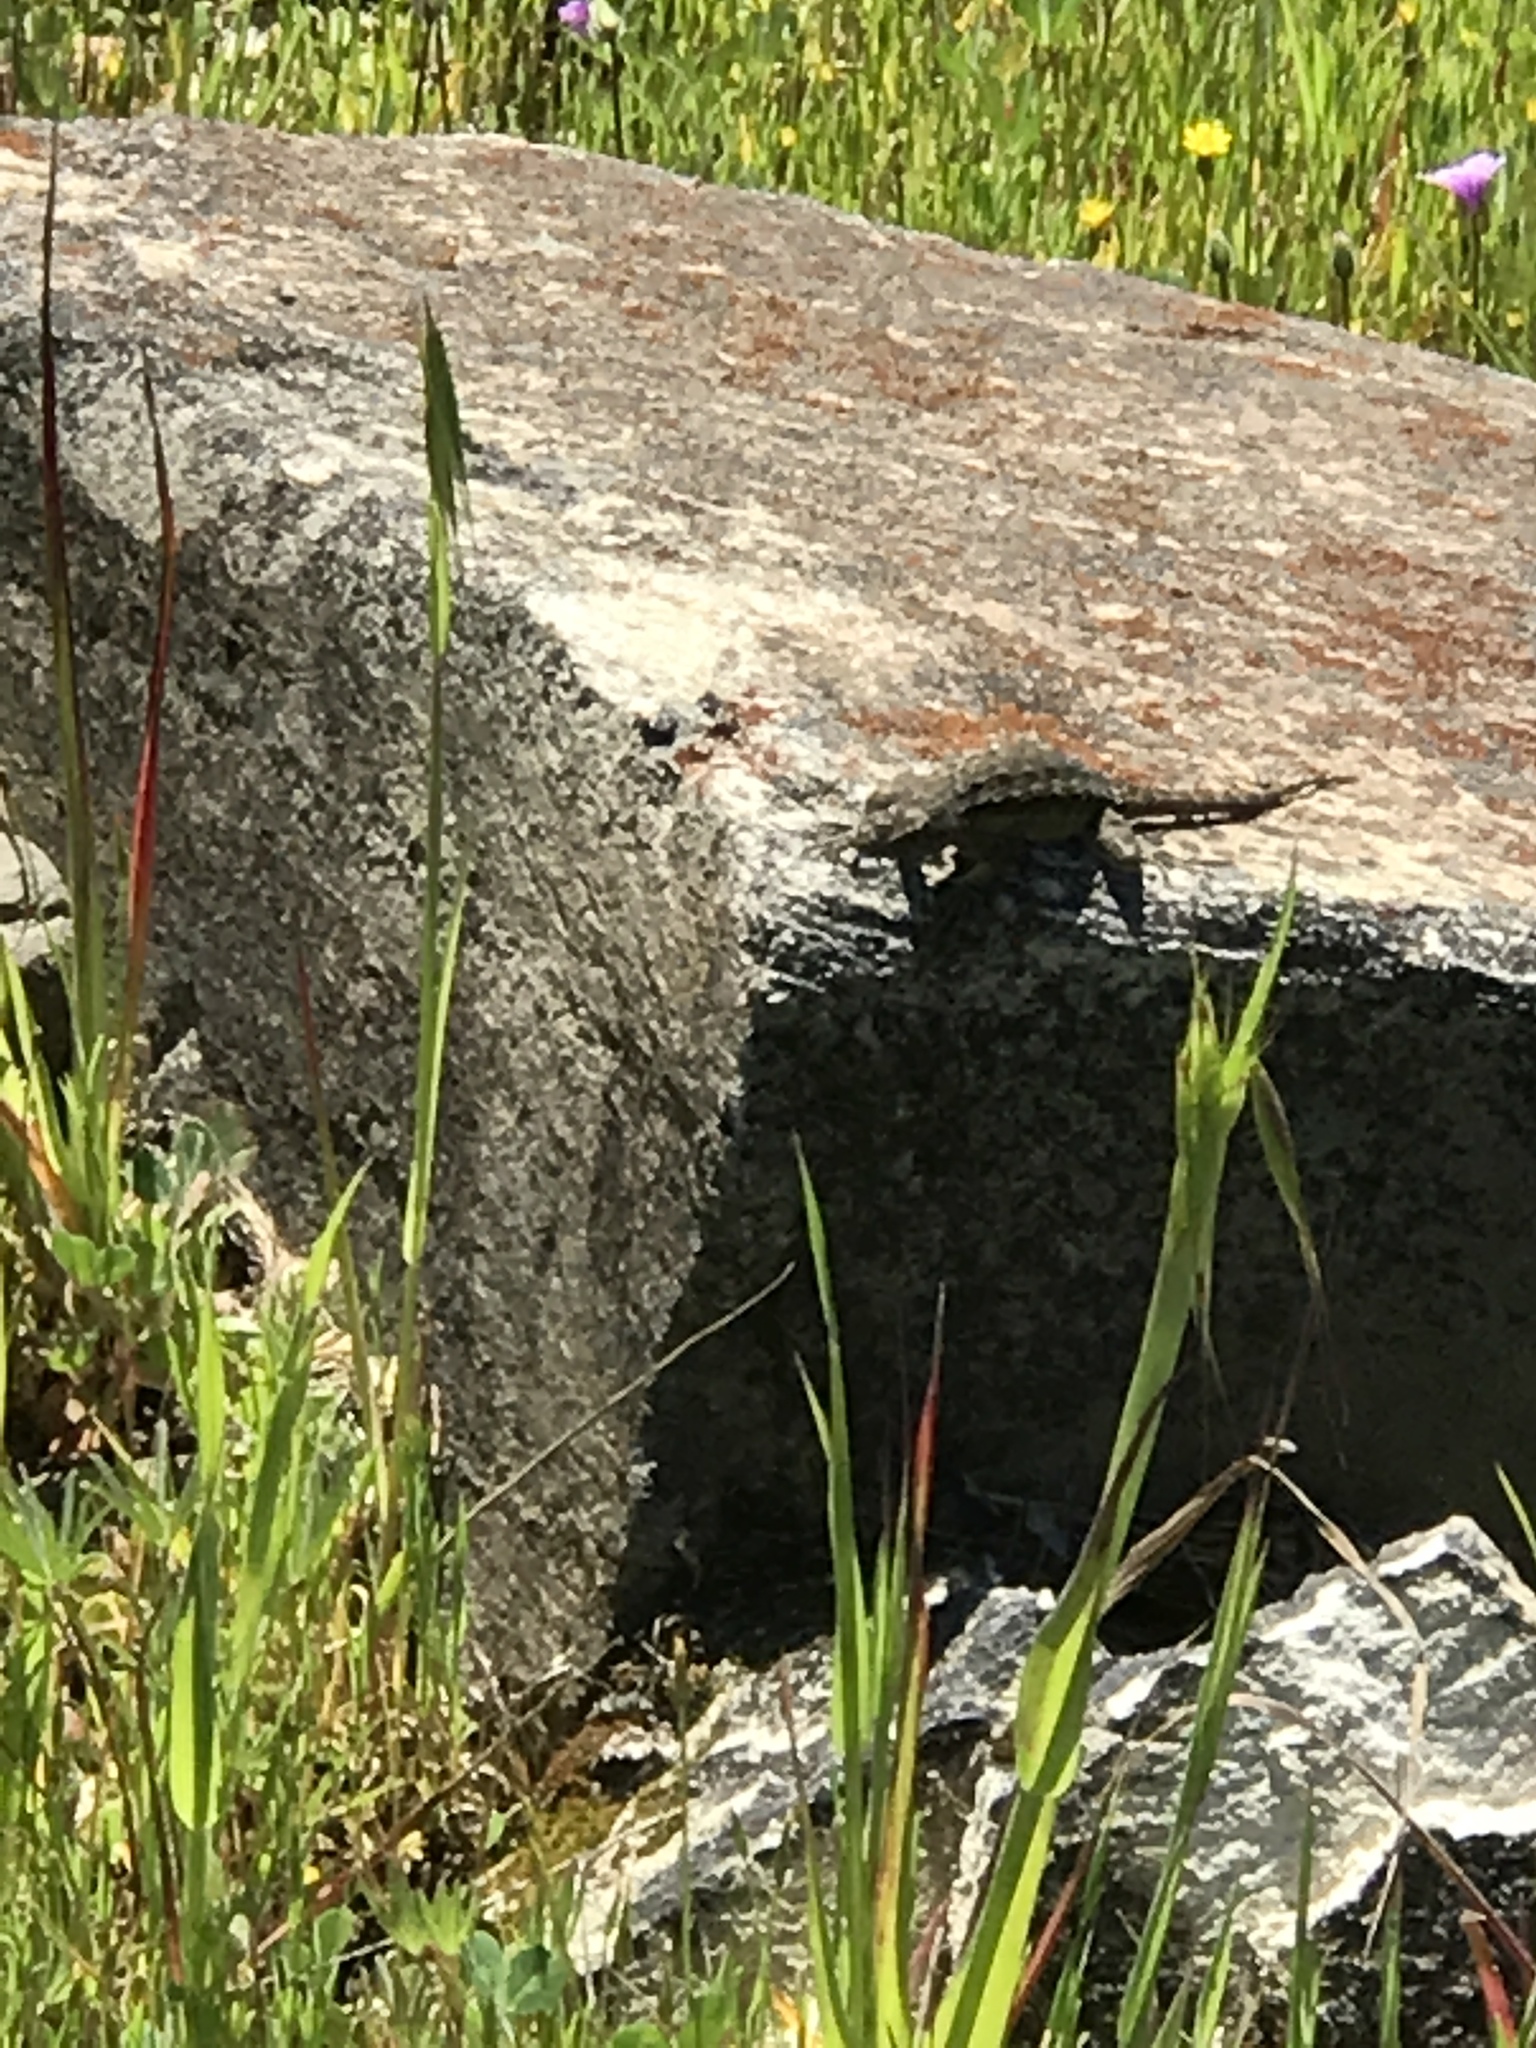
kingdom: Animalia
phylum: Chordata
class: Squamata
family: Phrynosomatidae
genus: Sceloporus
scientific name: Sceloporus occidentalis
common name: Western fence lizard
